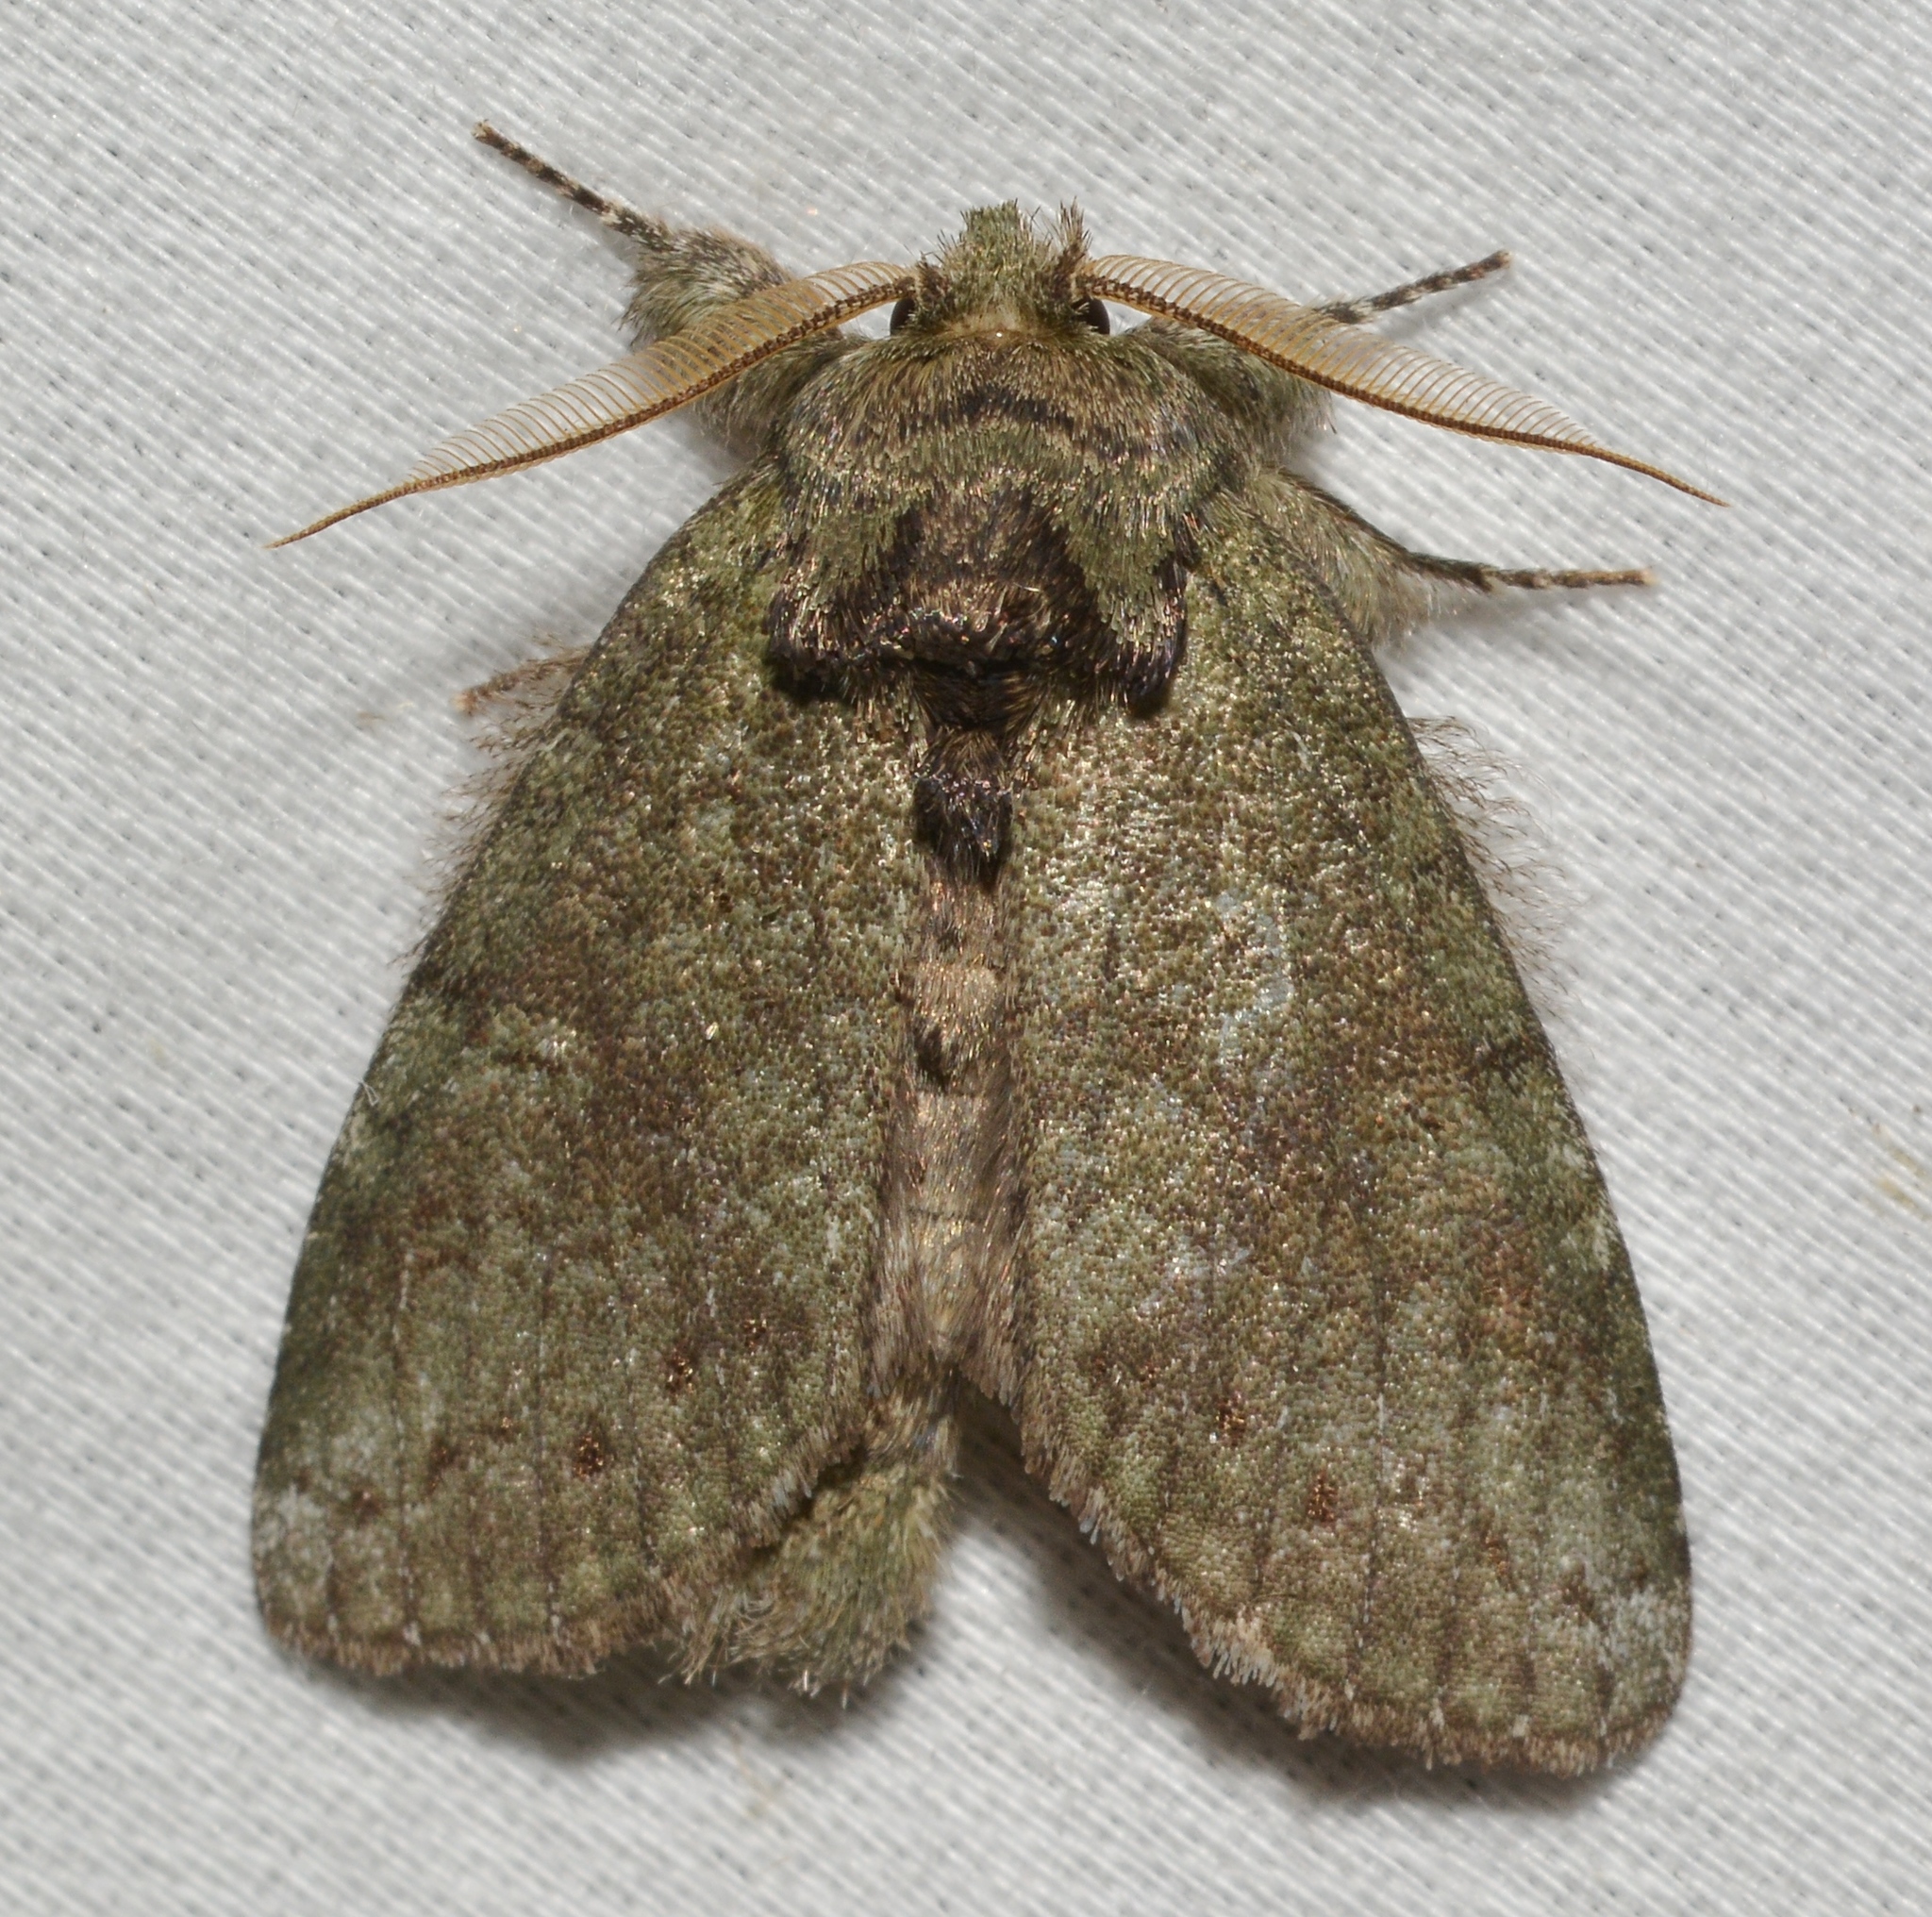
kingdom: Animalia
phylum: Arthropoda
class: Insecta
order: Lepidoptera
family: Notodontidae
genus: Disphragis
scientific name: Disphragis Cecrita guttivitta
